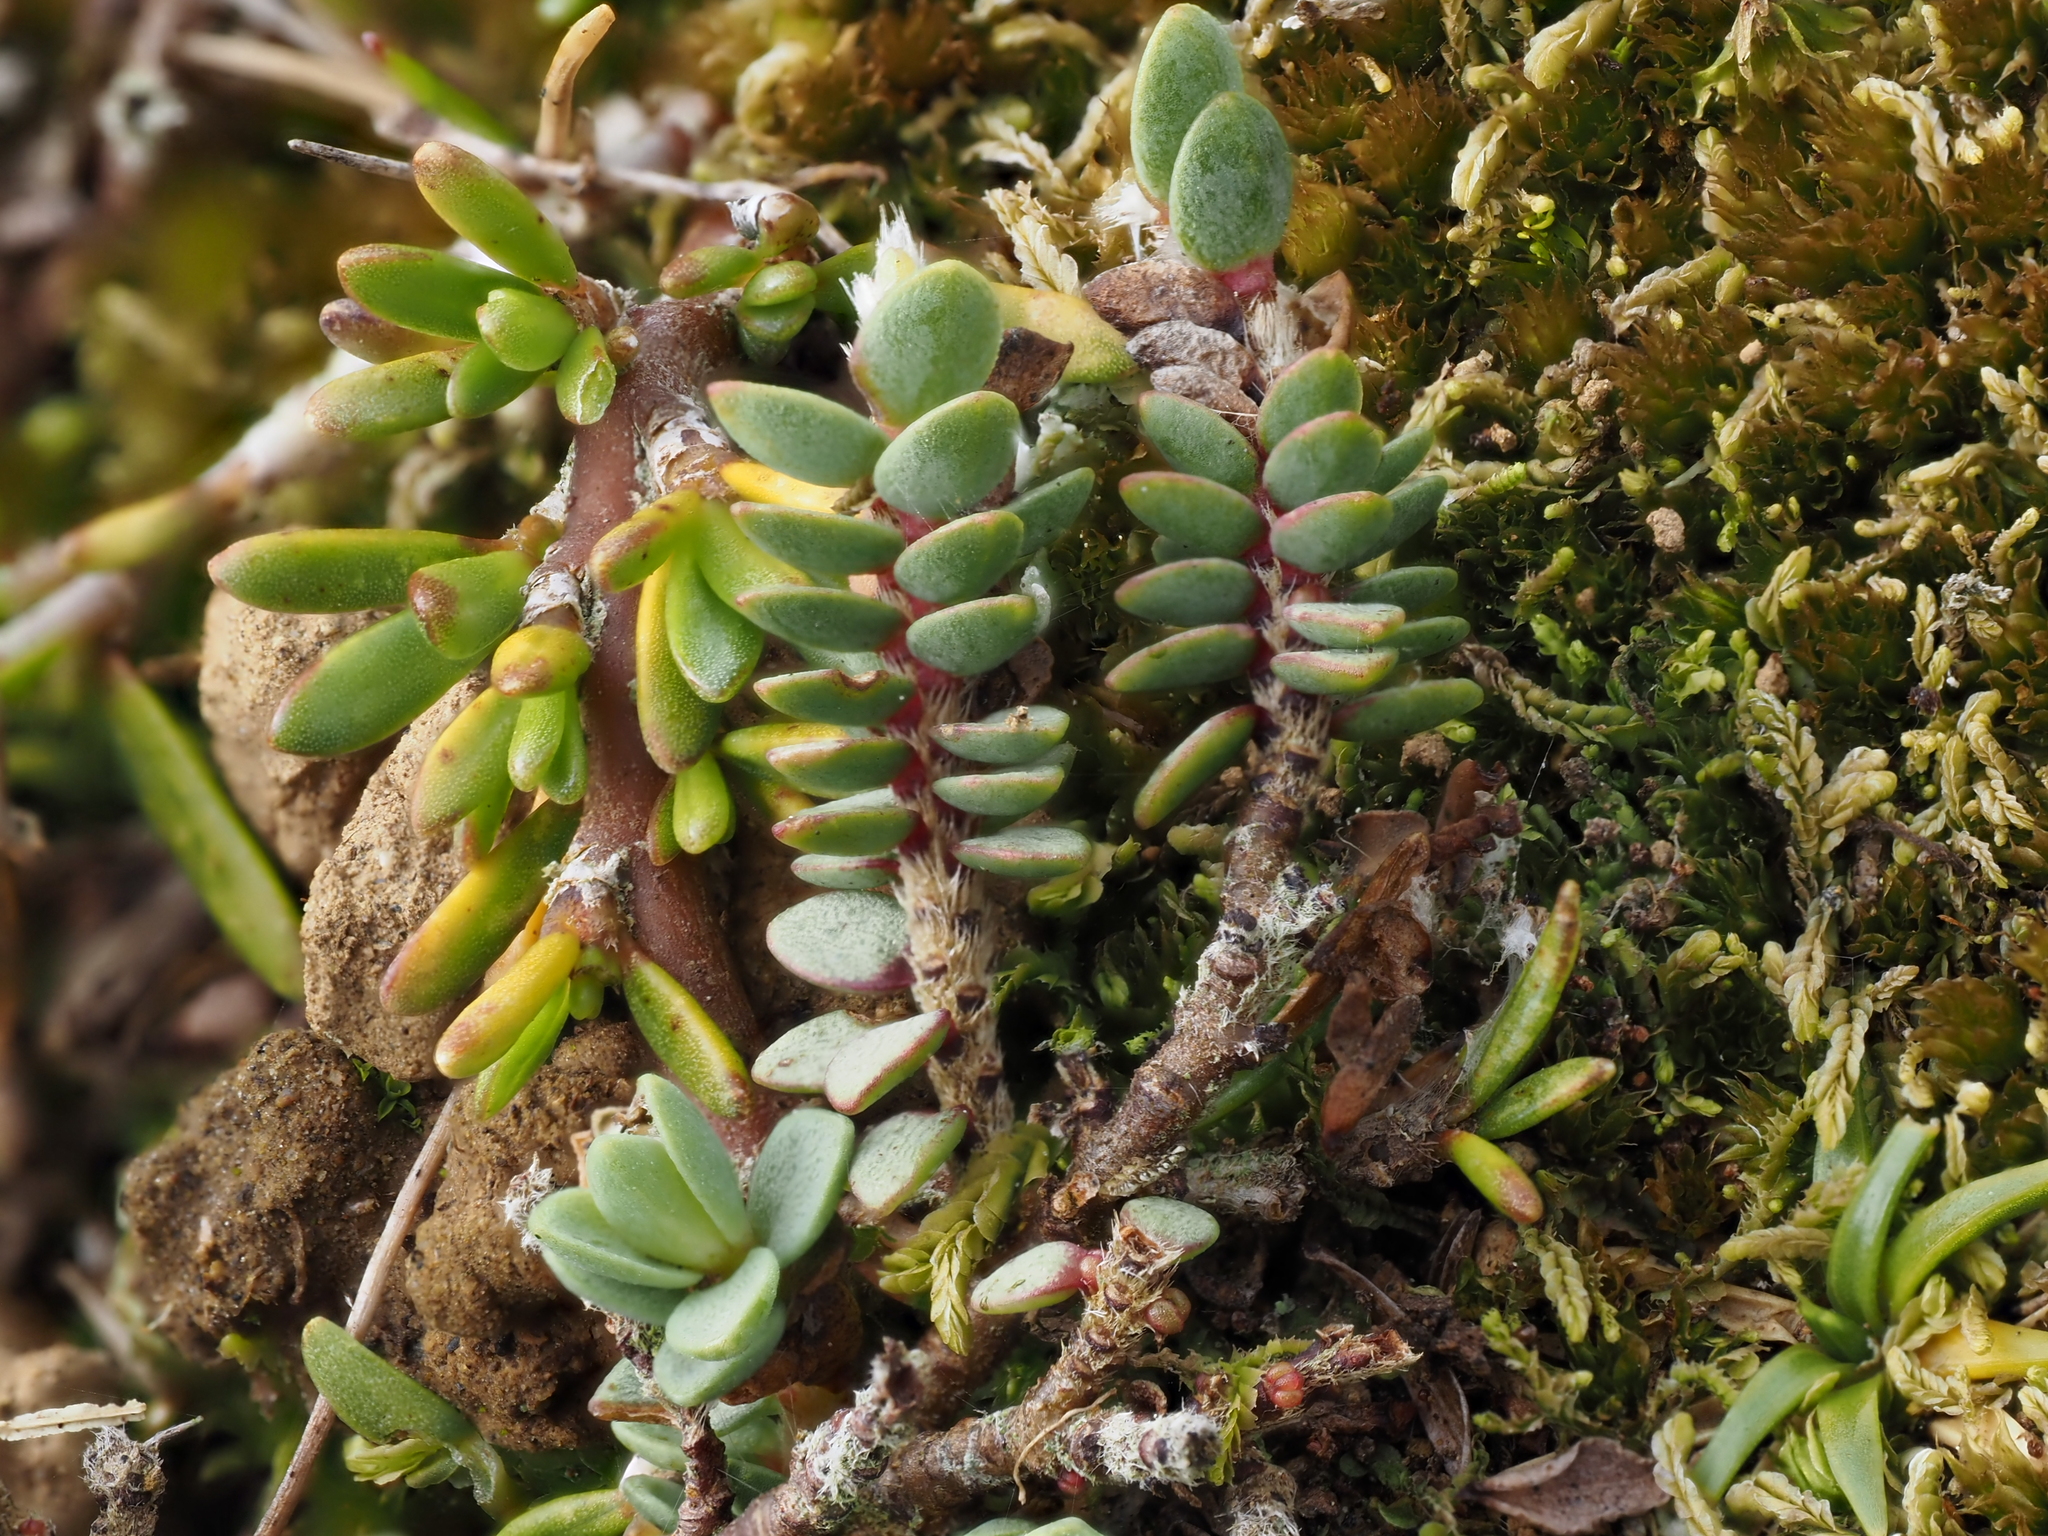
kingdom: Plantae
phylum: Tracheophyta
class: Magnoliopsida
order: Malvales
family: Thymelaeaceae
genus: Pimelea
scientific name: Pimelea carnosa
